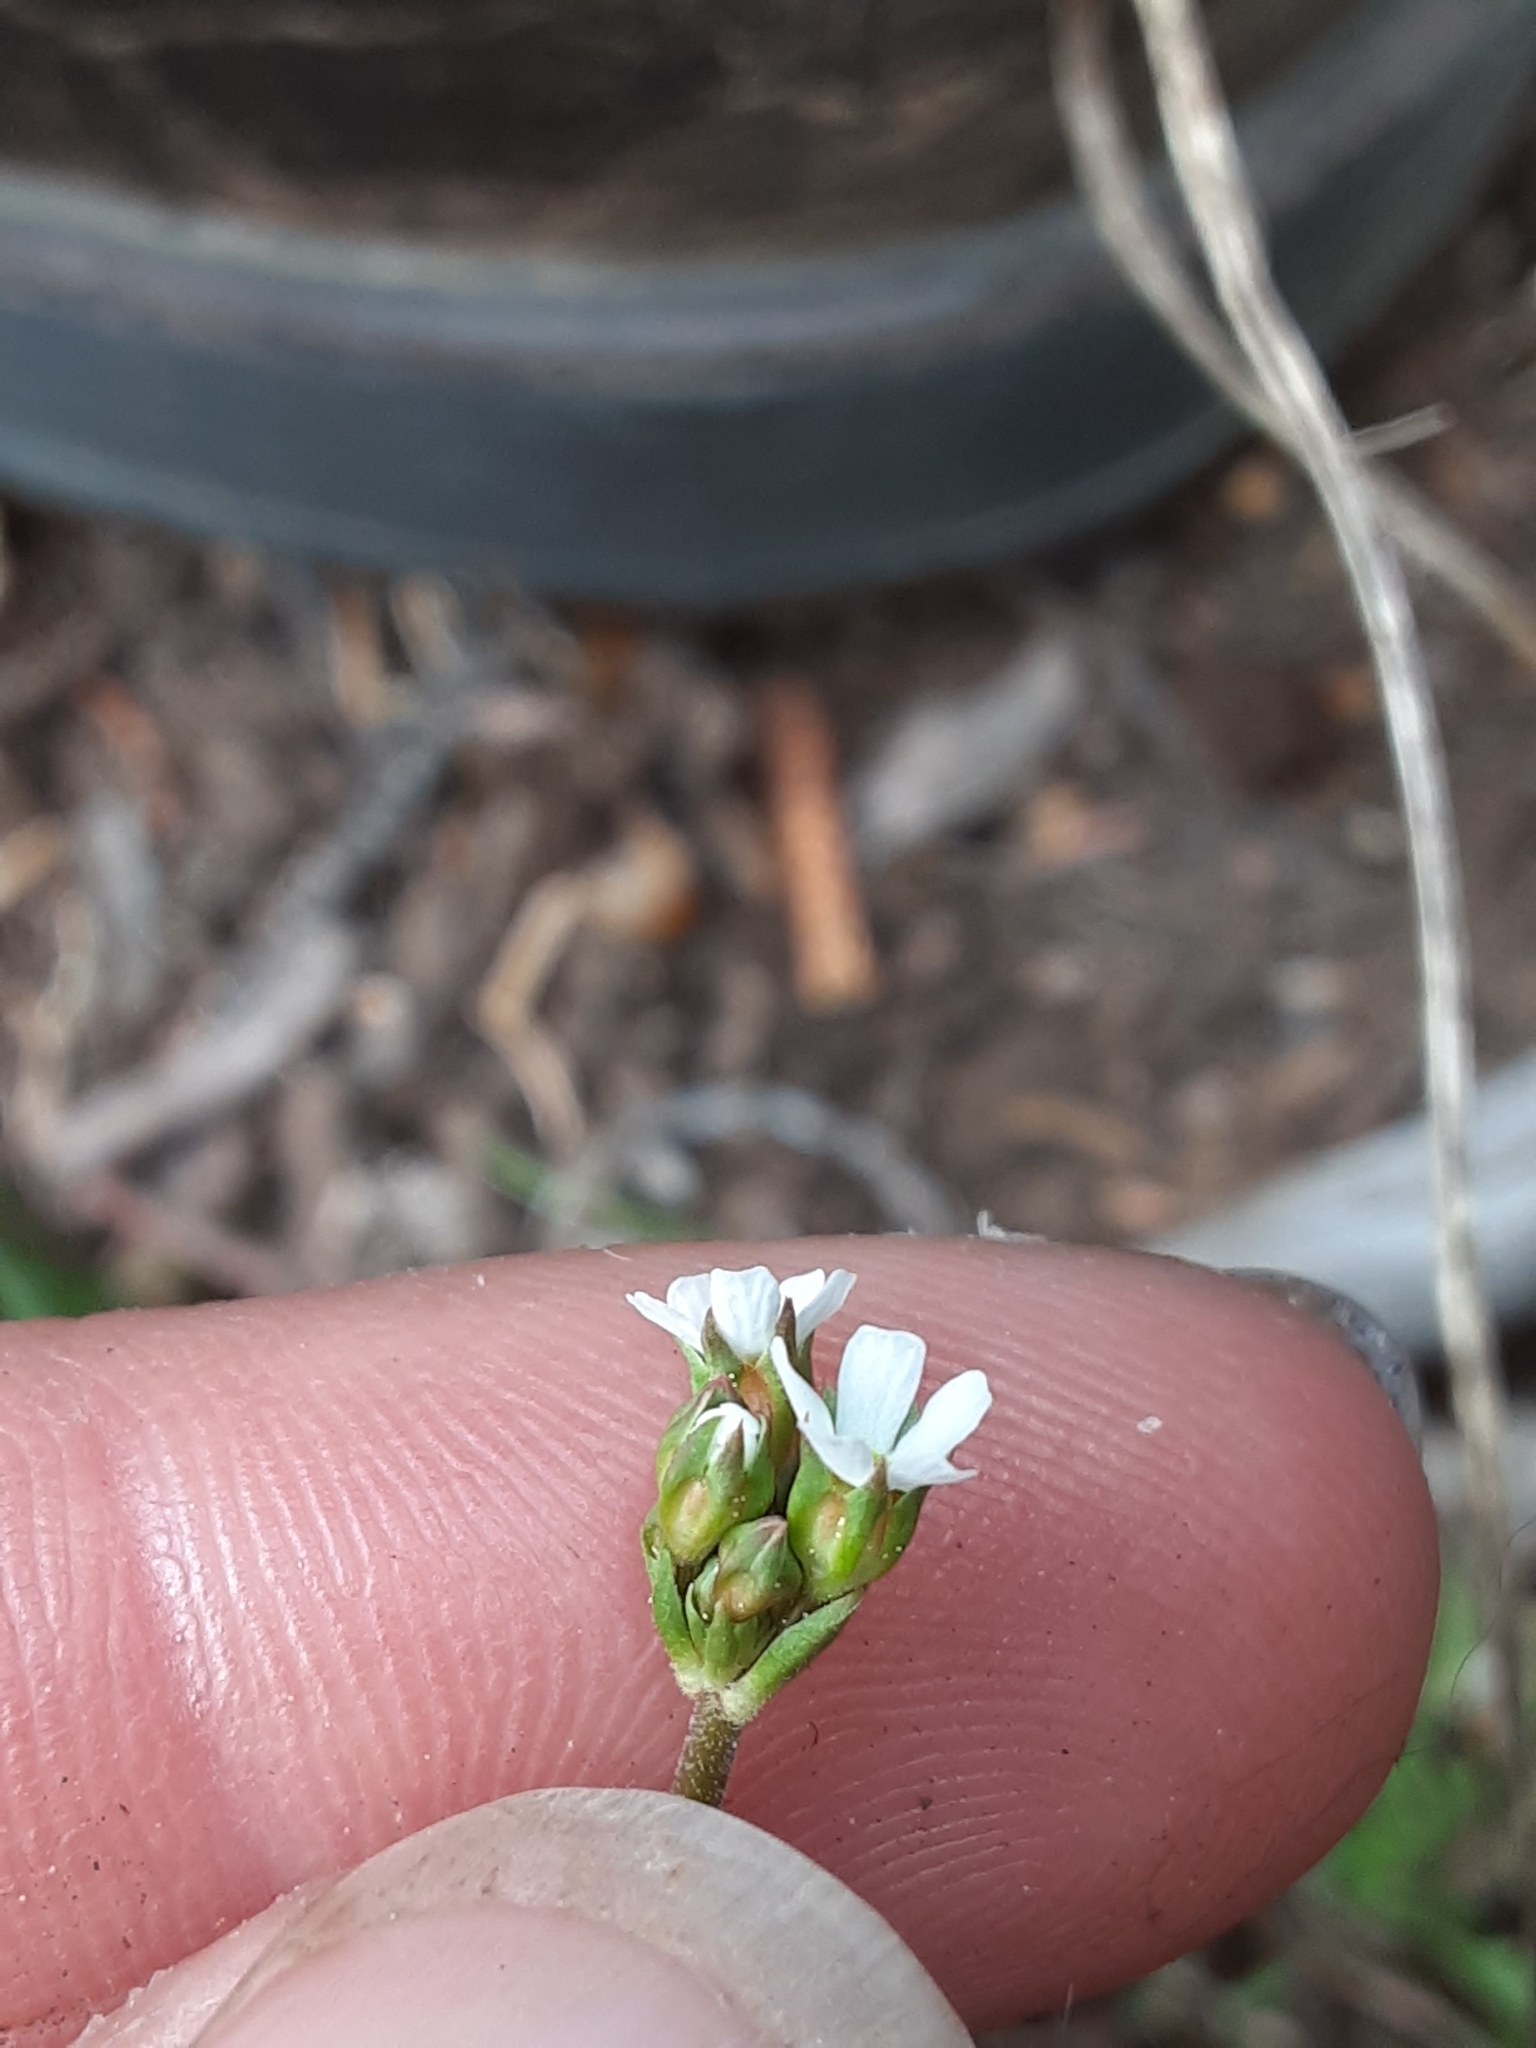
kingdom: Plantae
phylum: Tracheophyta
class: Magnoliopsida
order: Ericales
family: Primulaceae
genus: Androsace
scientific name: Androsace septentrionalis
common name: Hairy northern fairy-candelabra
